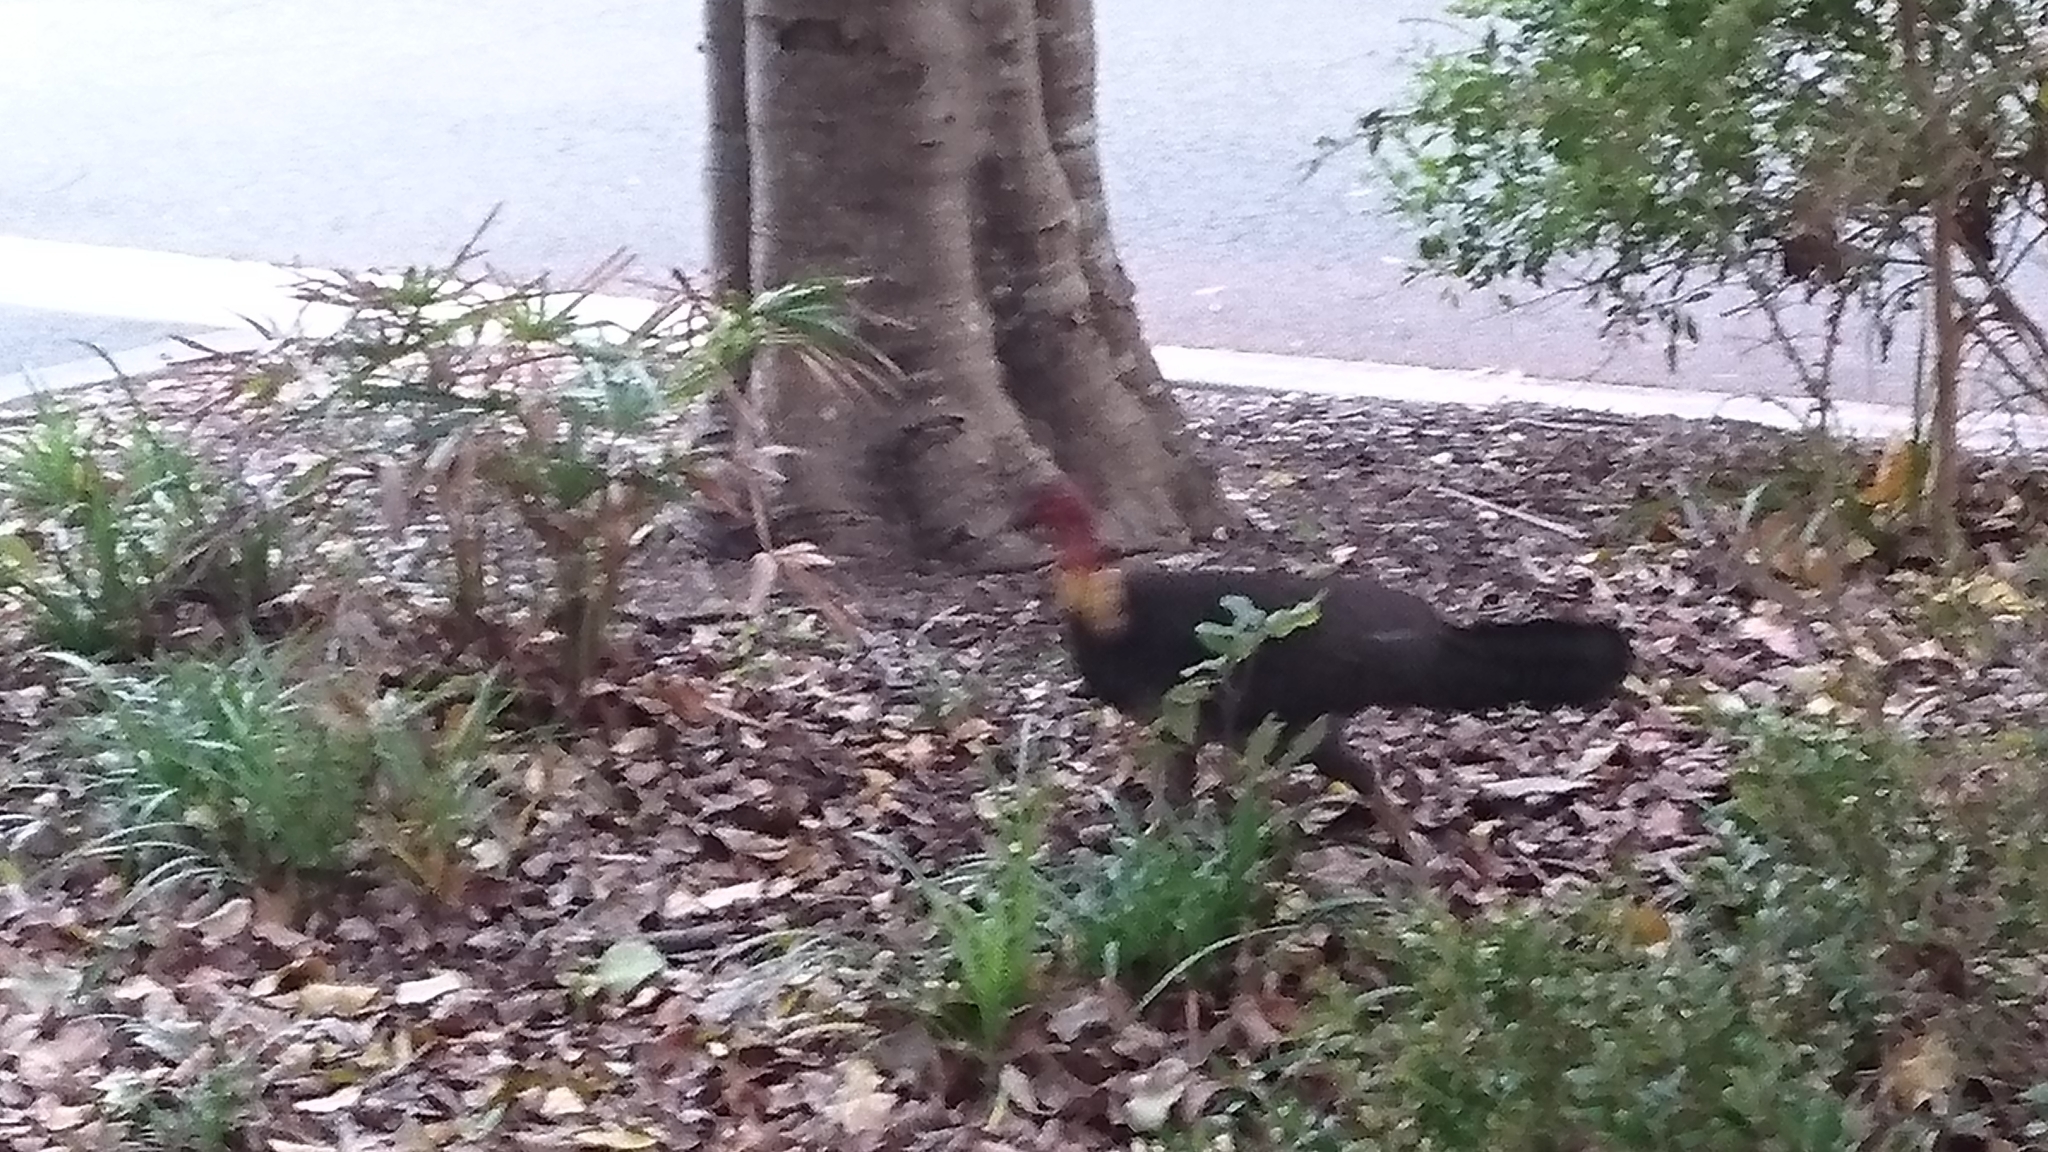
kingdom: Animalia
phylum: Chordata
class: Aves
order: Galliformes
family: Megapodiidae
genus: Alectura
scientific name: Alectura lathami
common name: Australian brushturkey
